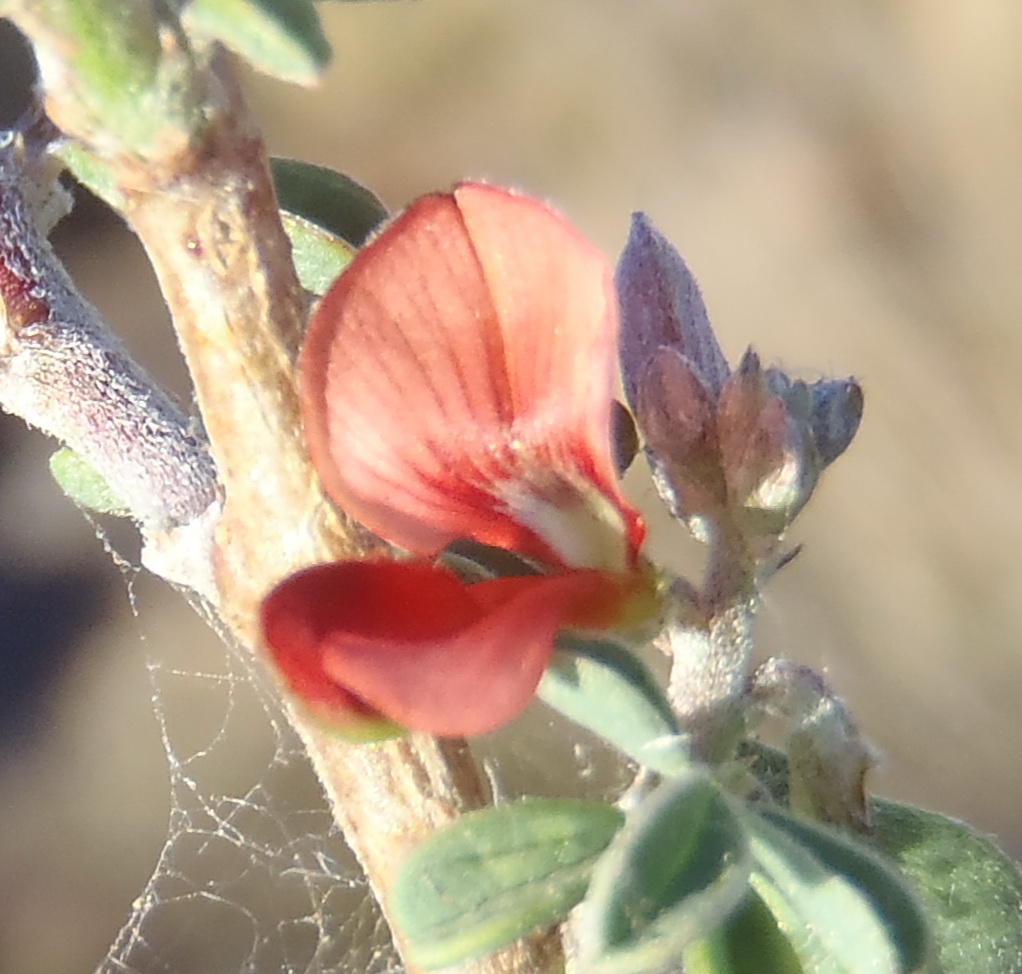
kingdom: Plantae
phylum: Tracheophyta
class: Magnoliopsida
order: Fabales
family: Fabaceae
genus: Indigofera
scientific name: Indigofera sessilifolia
